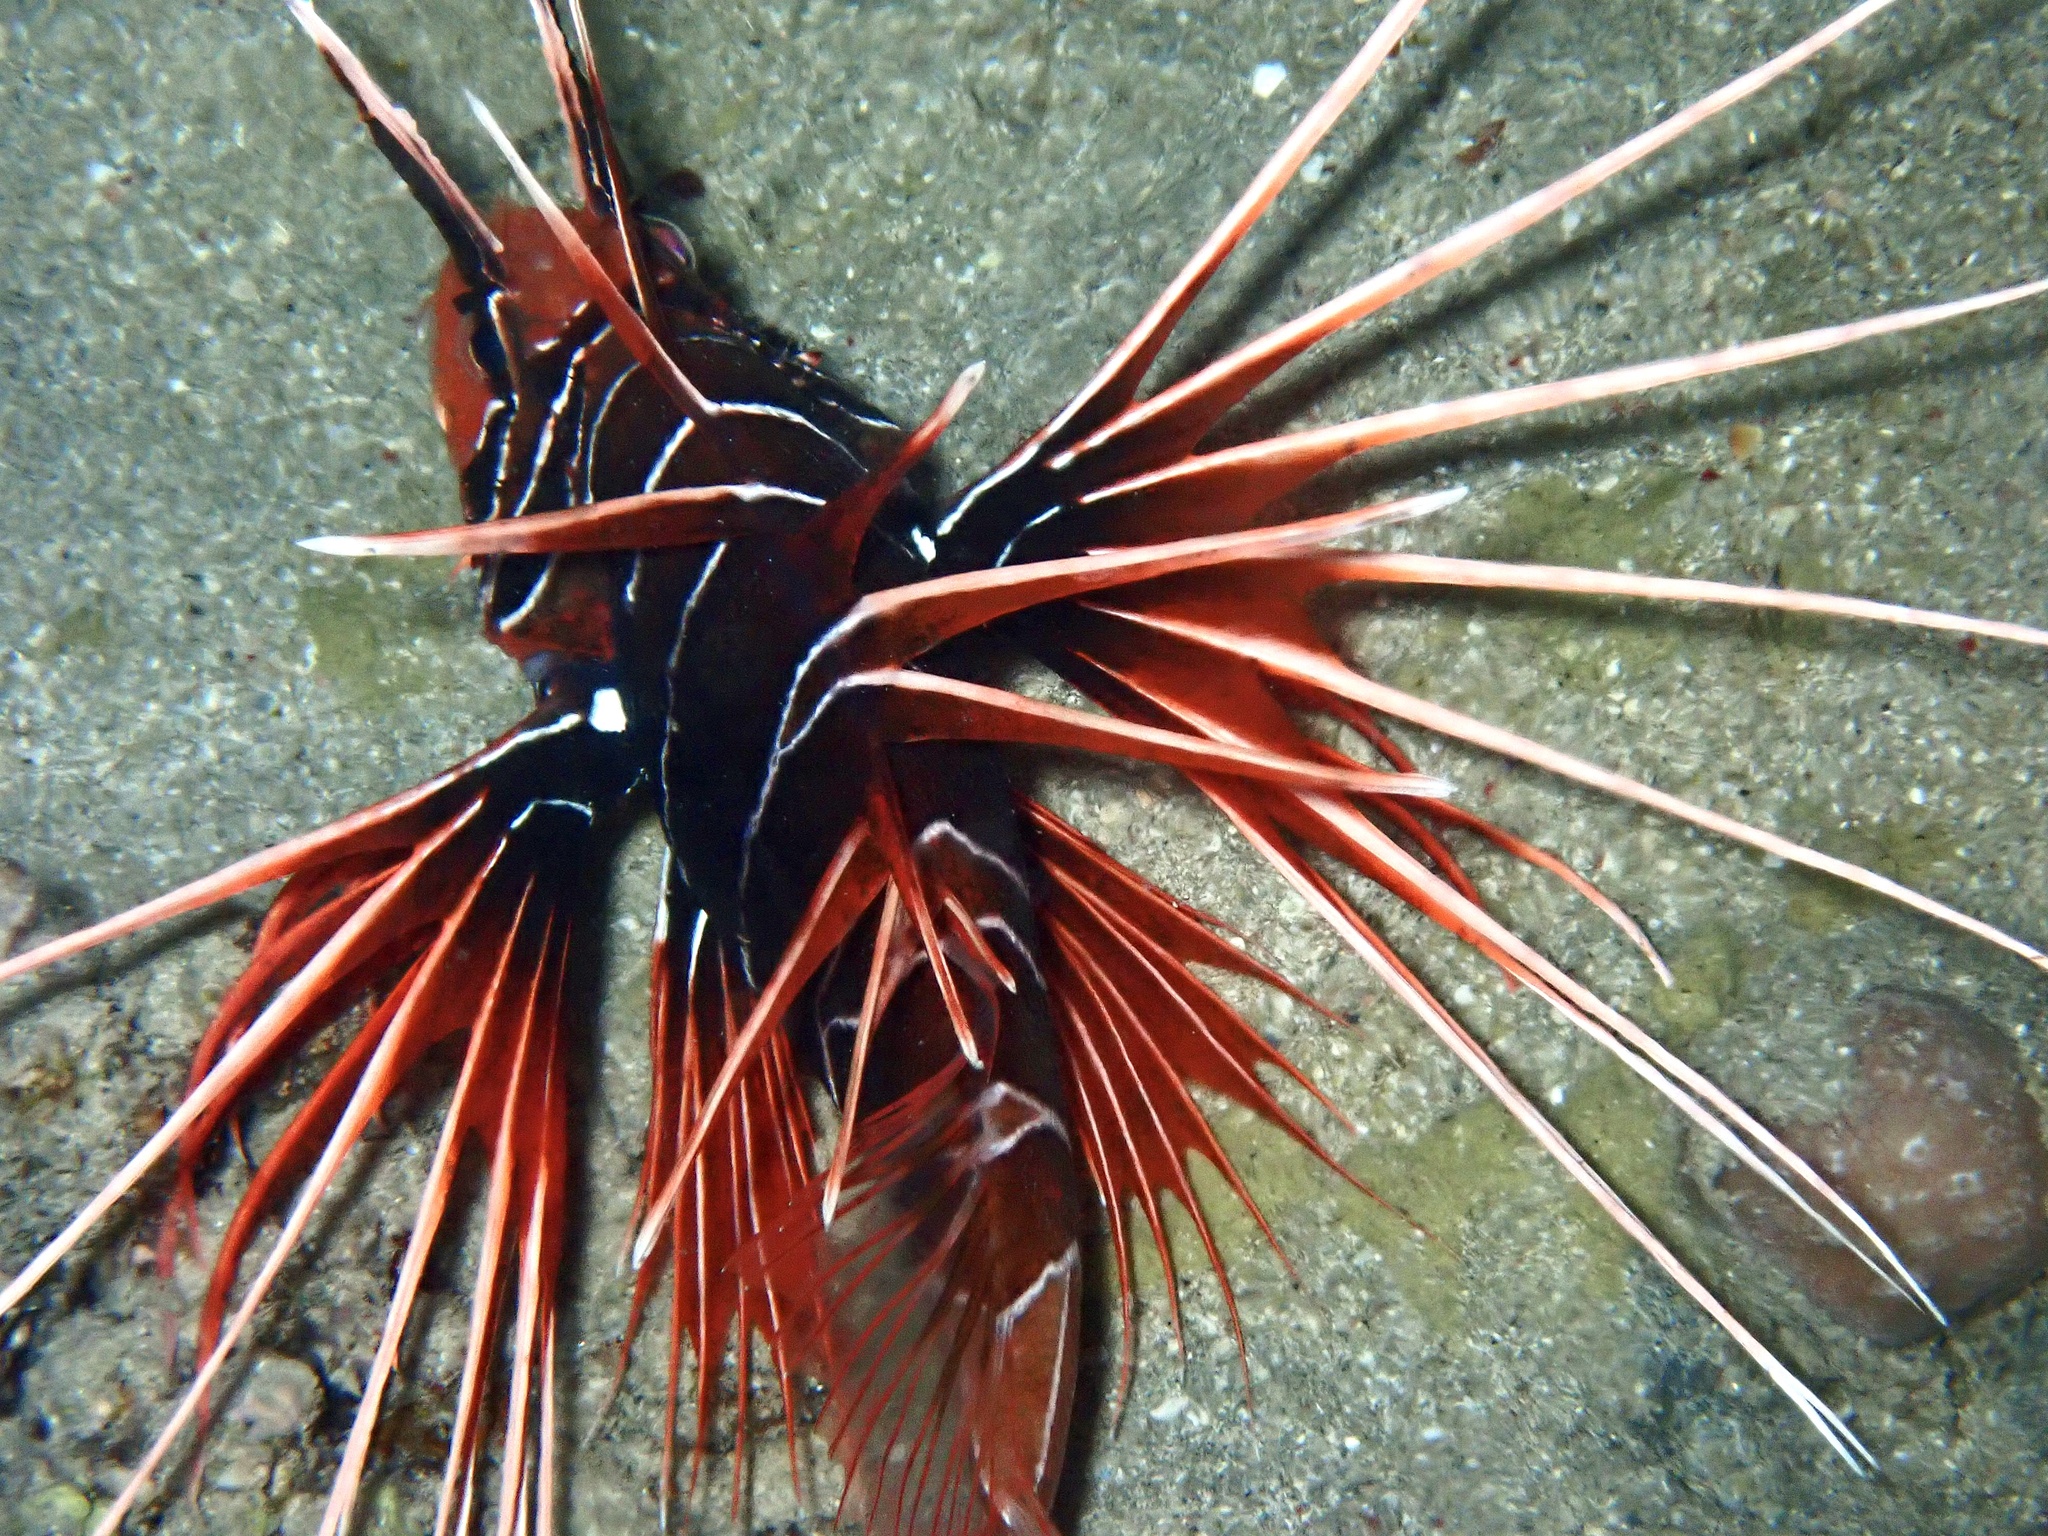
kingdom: Animalia
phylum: Chordata
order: Scorpaeniformes
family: Scorpaenidae
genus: Pterois
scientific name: Pterois cincta
